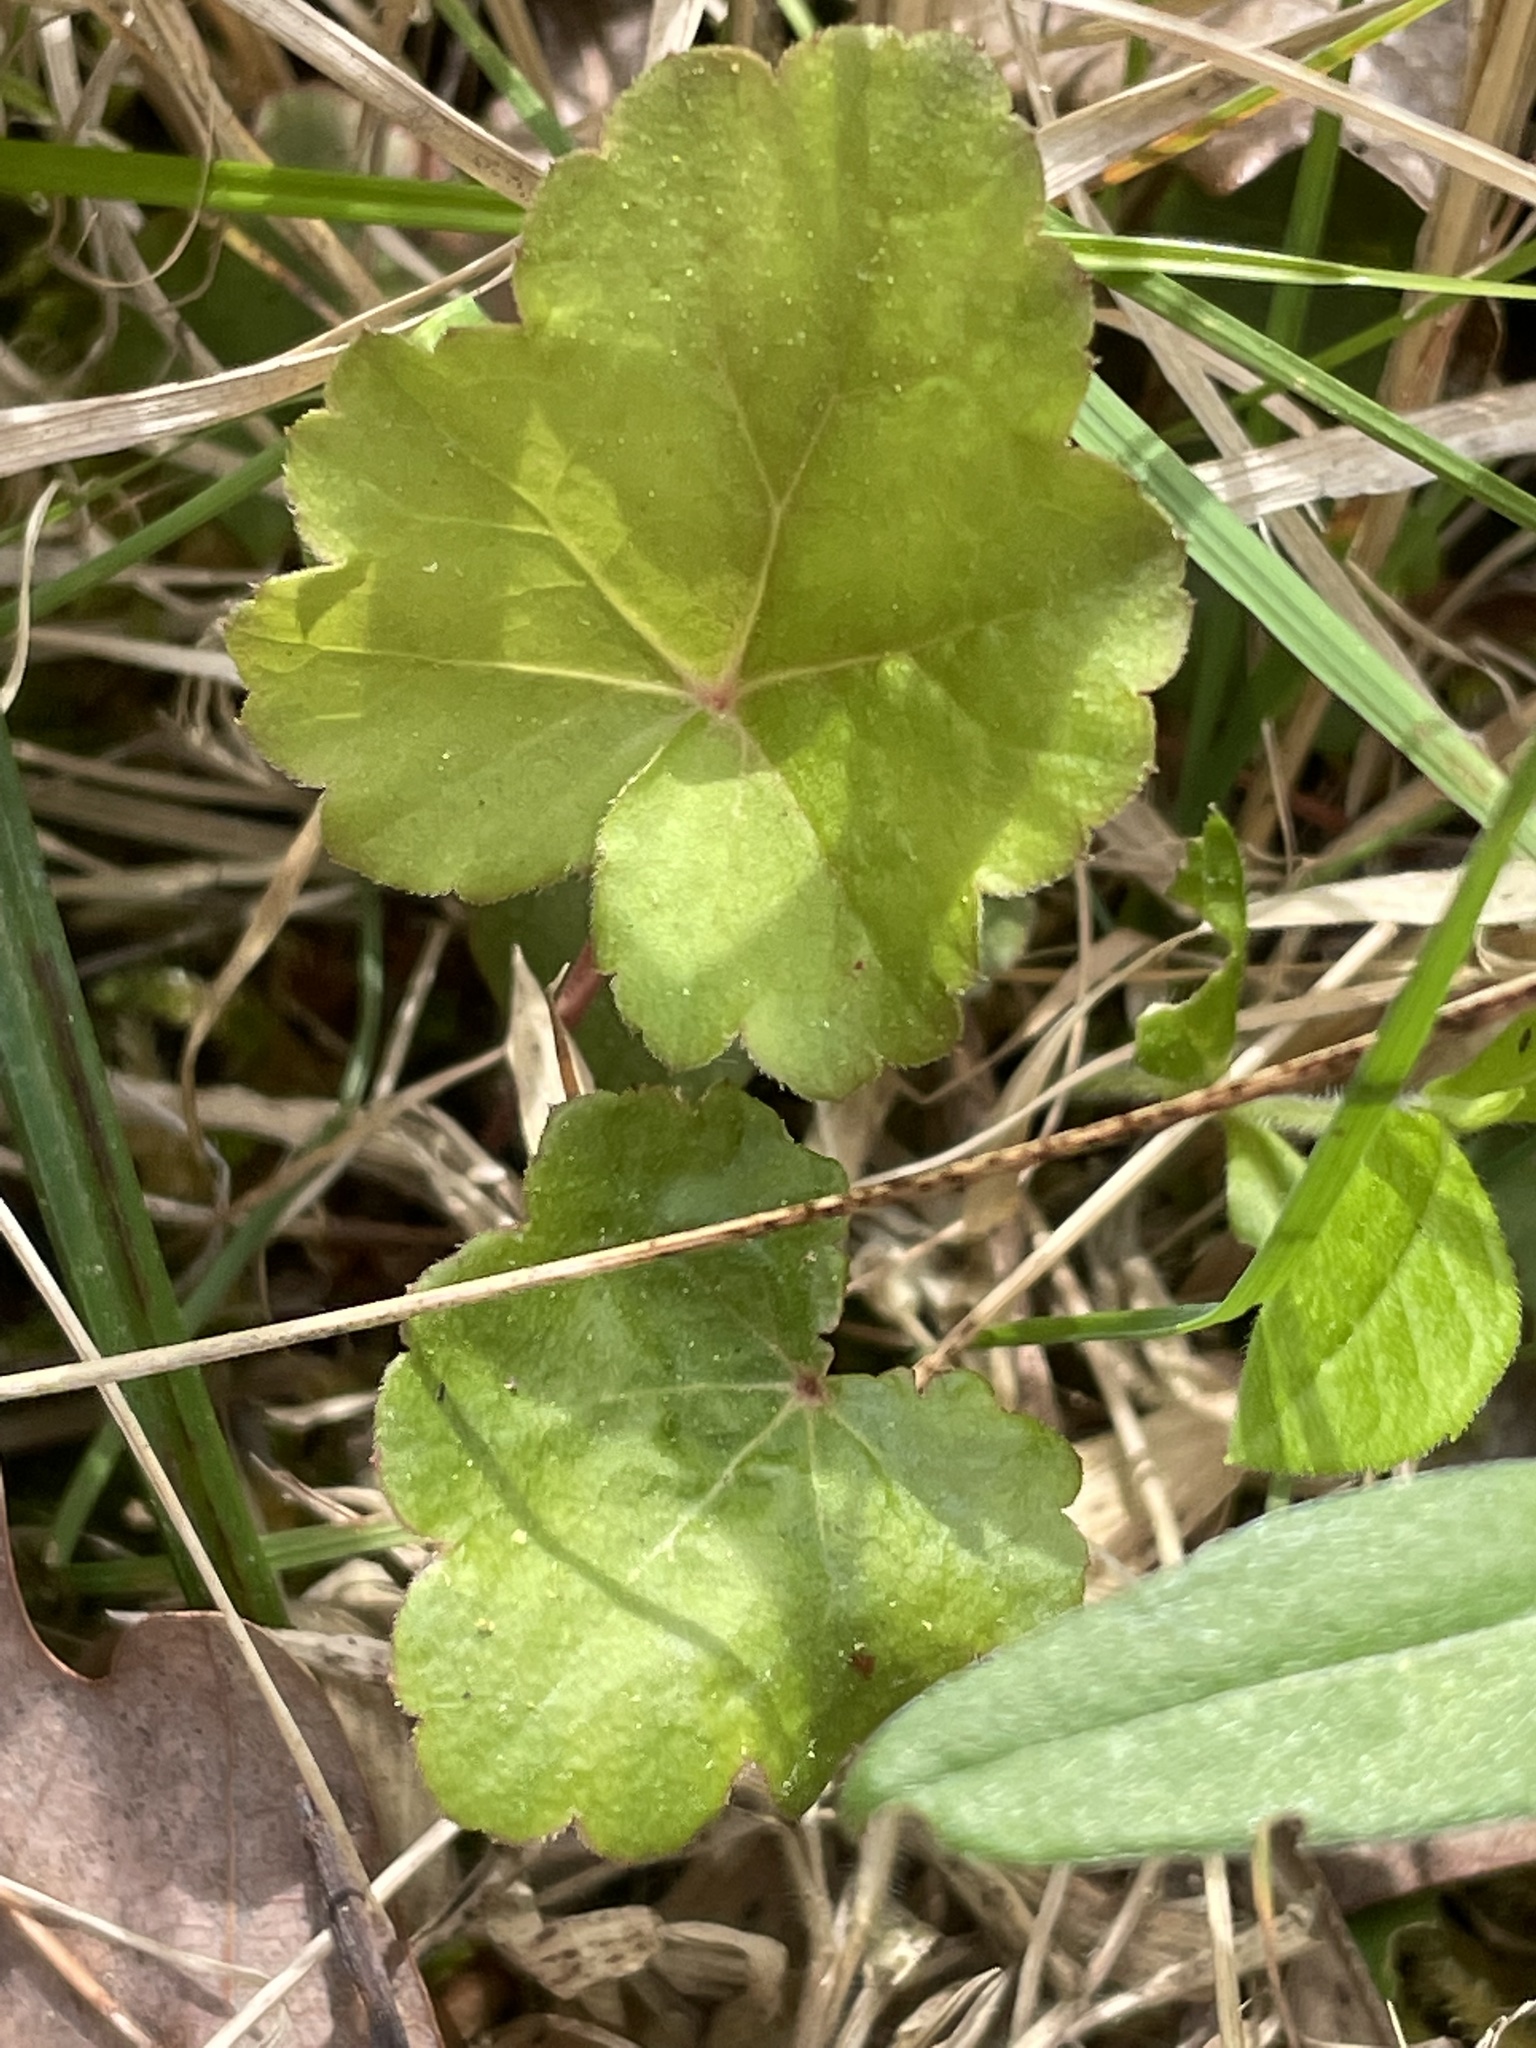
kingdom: Plantae
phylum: Tracheophyta
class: Magnoliopsida
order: Saxifragales
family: Saxifragaceae
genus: Heuchera
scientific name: Heuchera caroliniana
